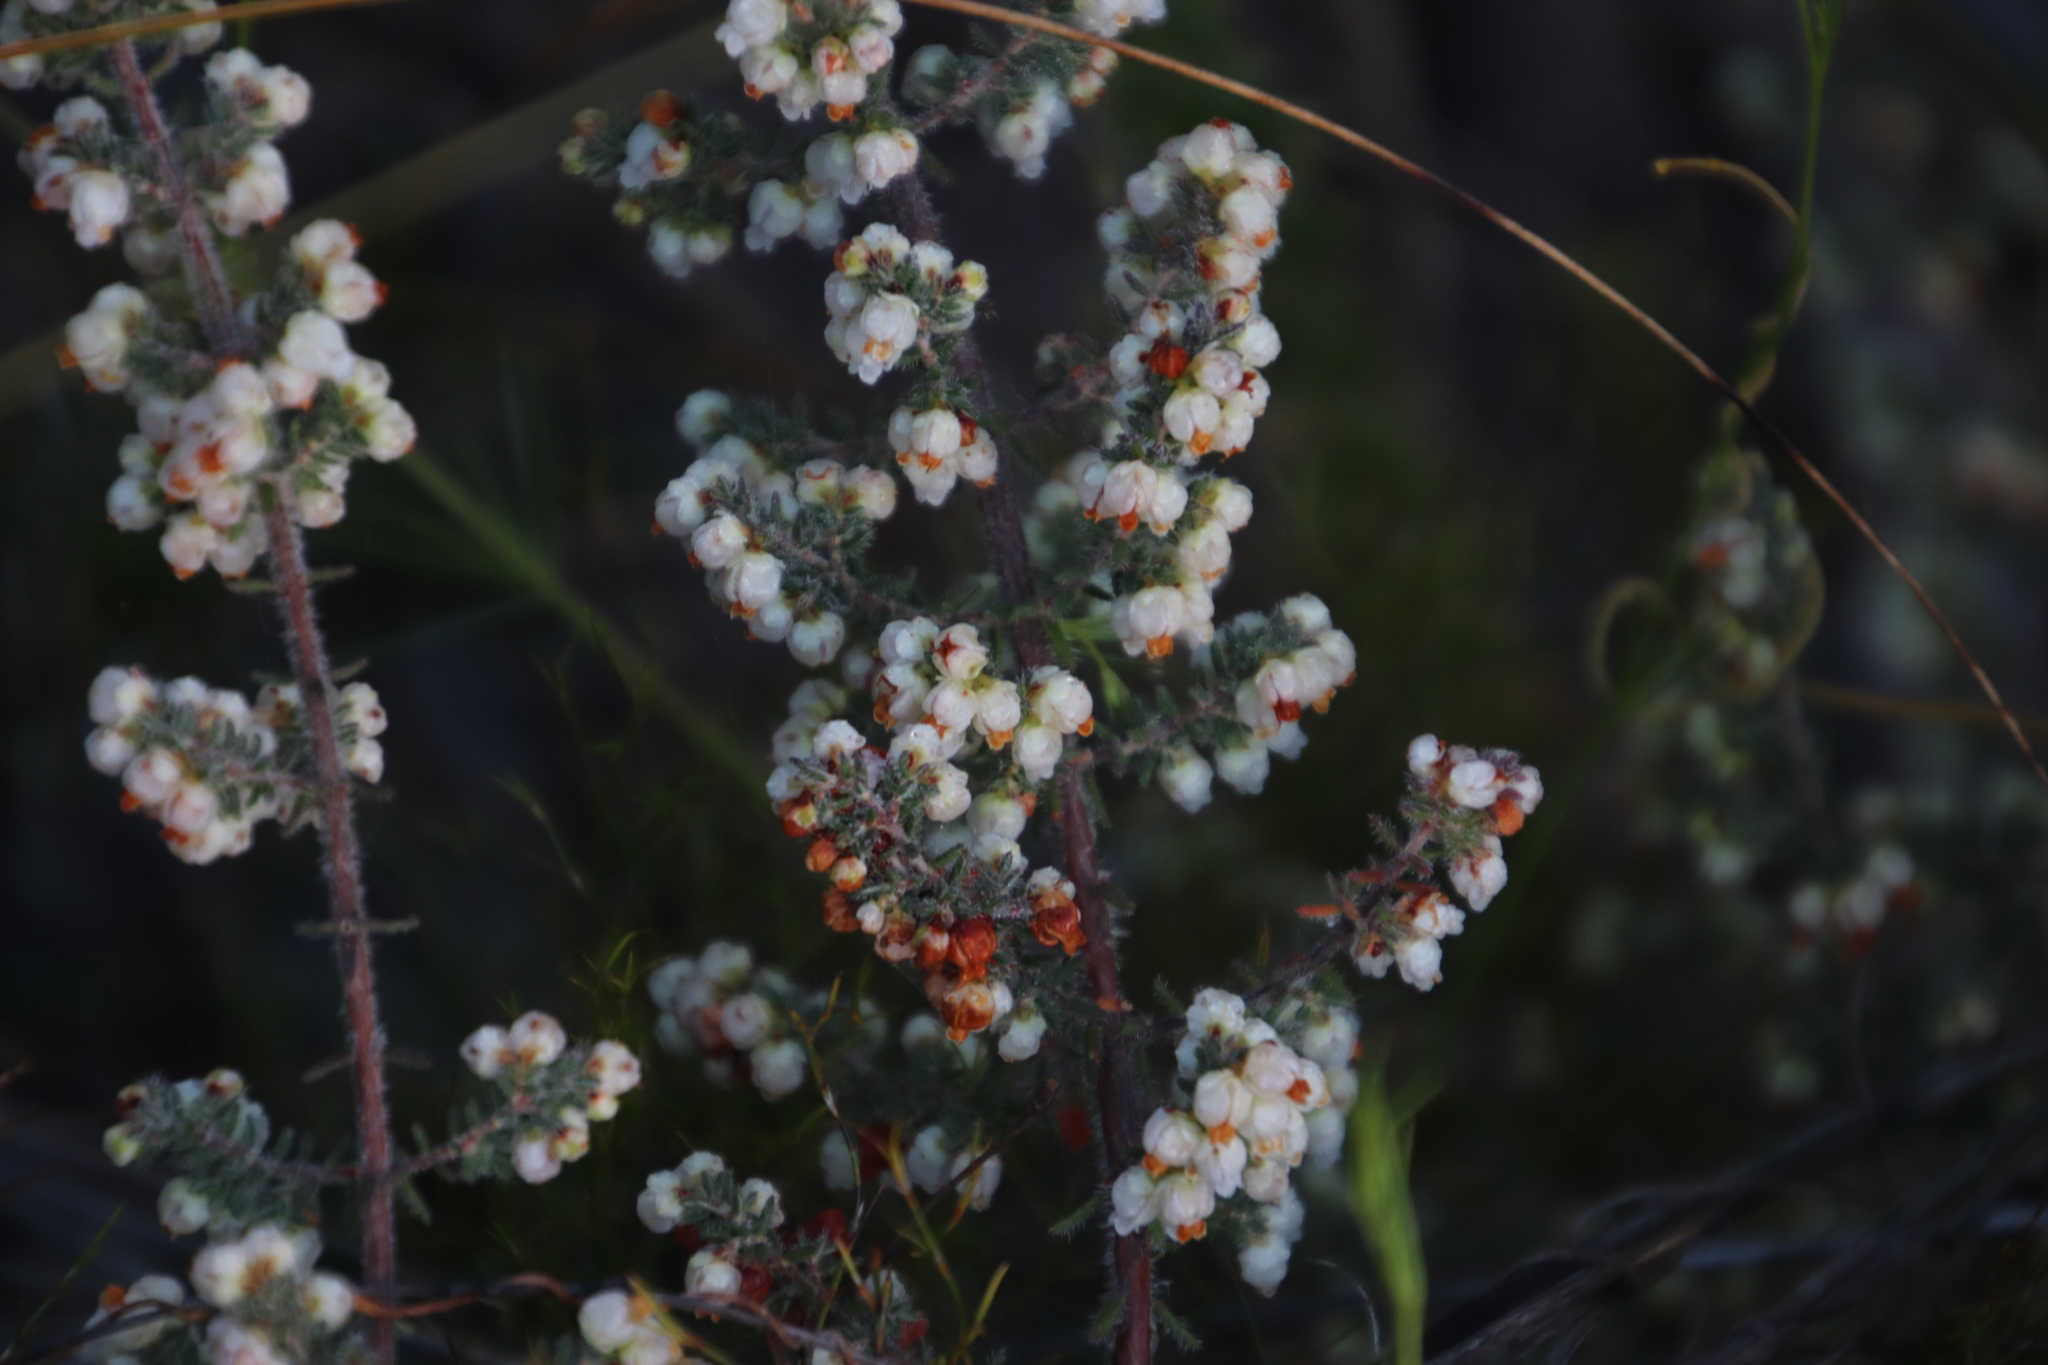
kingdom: Plantae
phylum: Tracheophyta
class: Magnoliopsida
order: Ericales
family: Ericaceae
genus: Erica
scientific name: Erica totta
